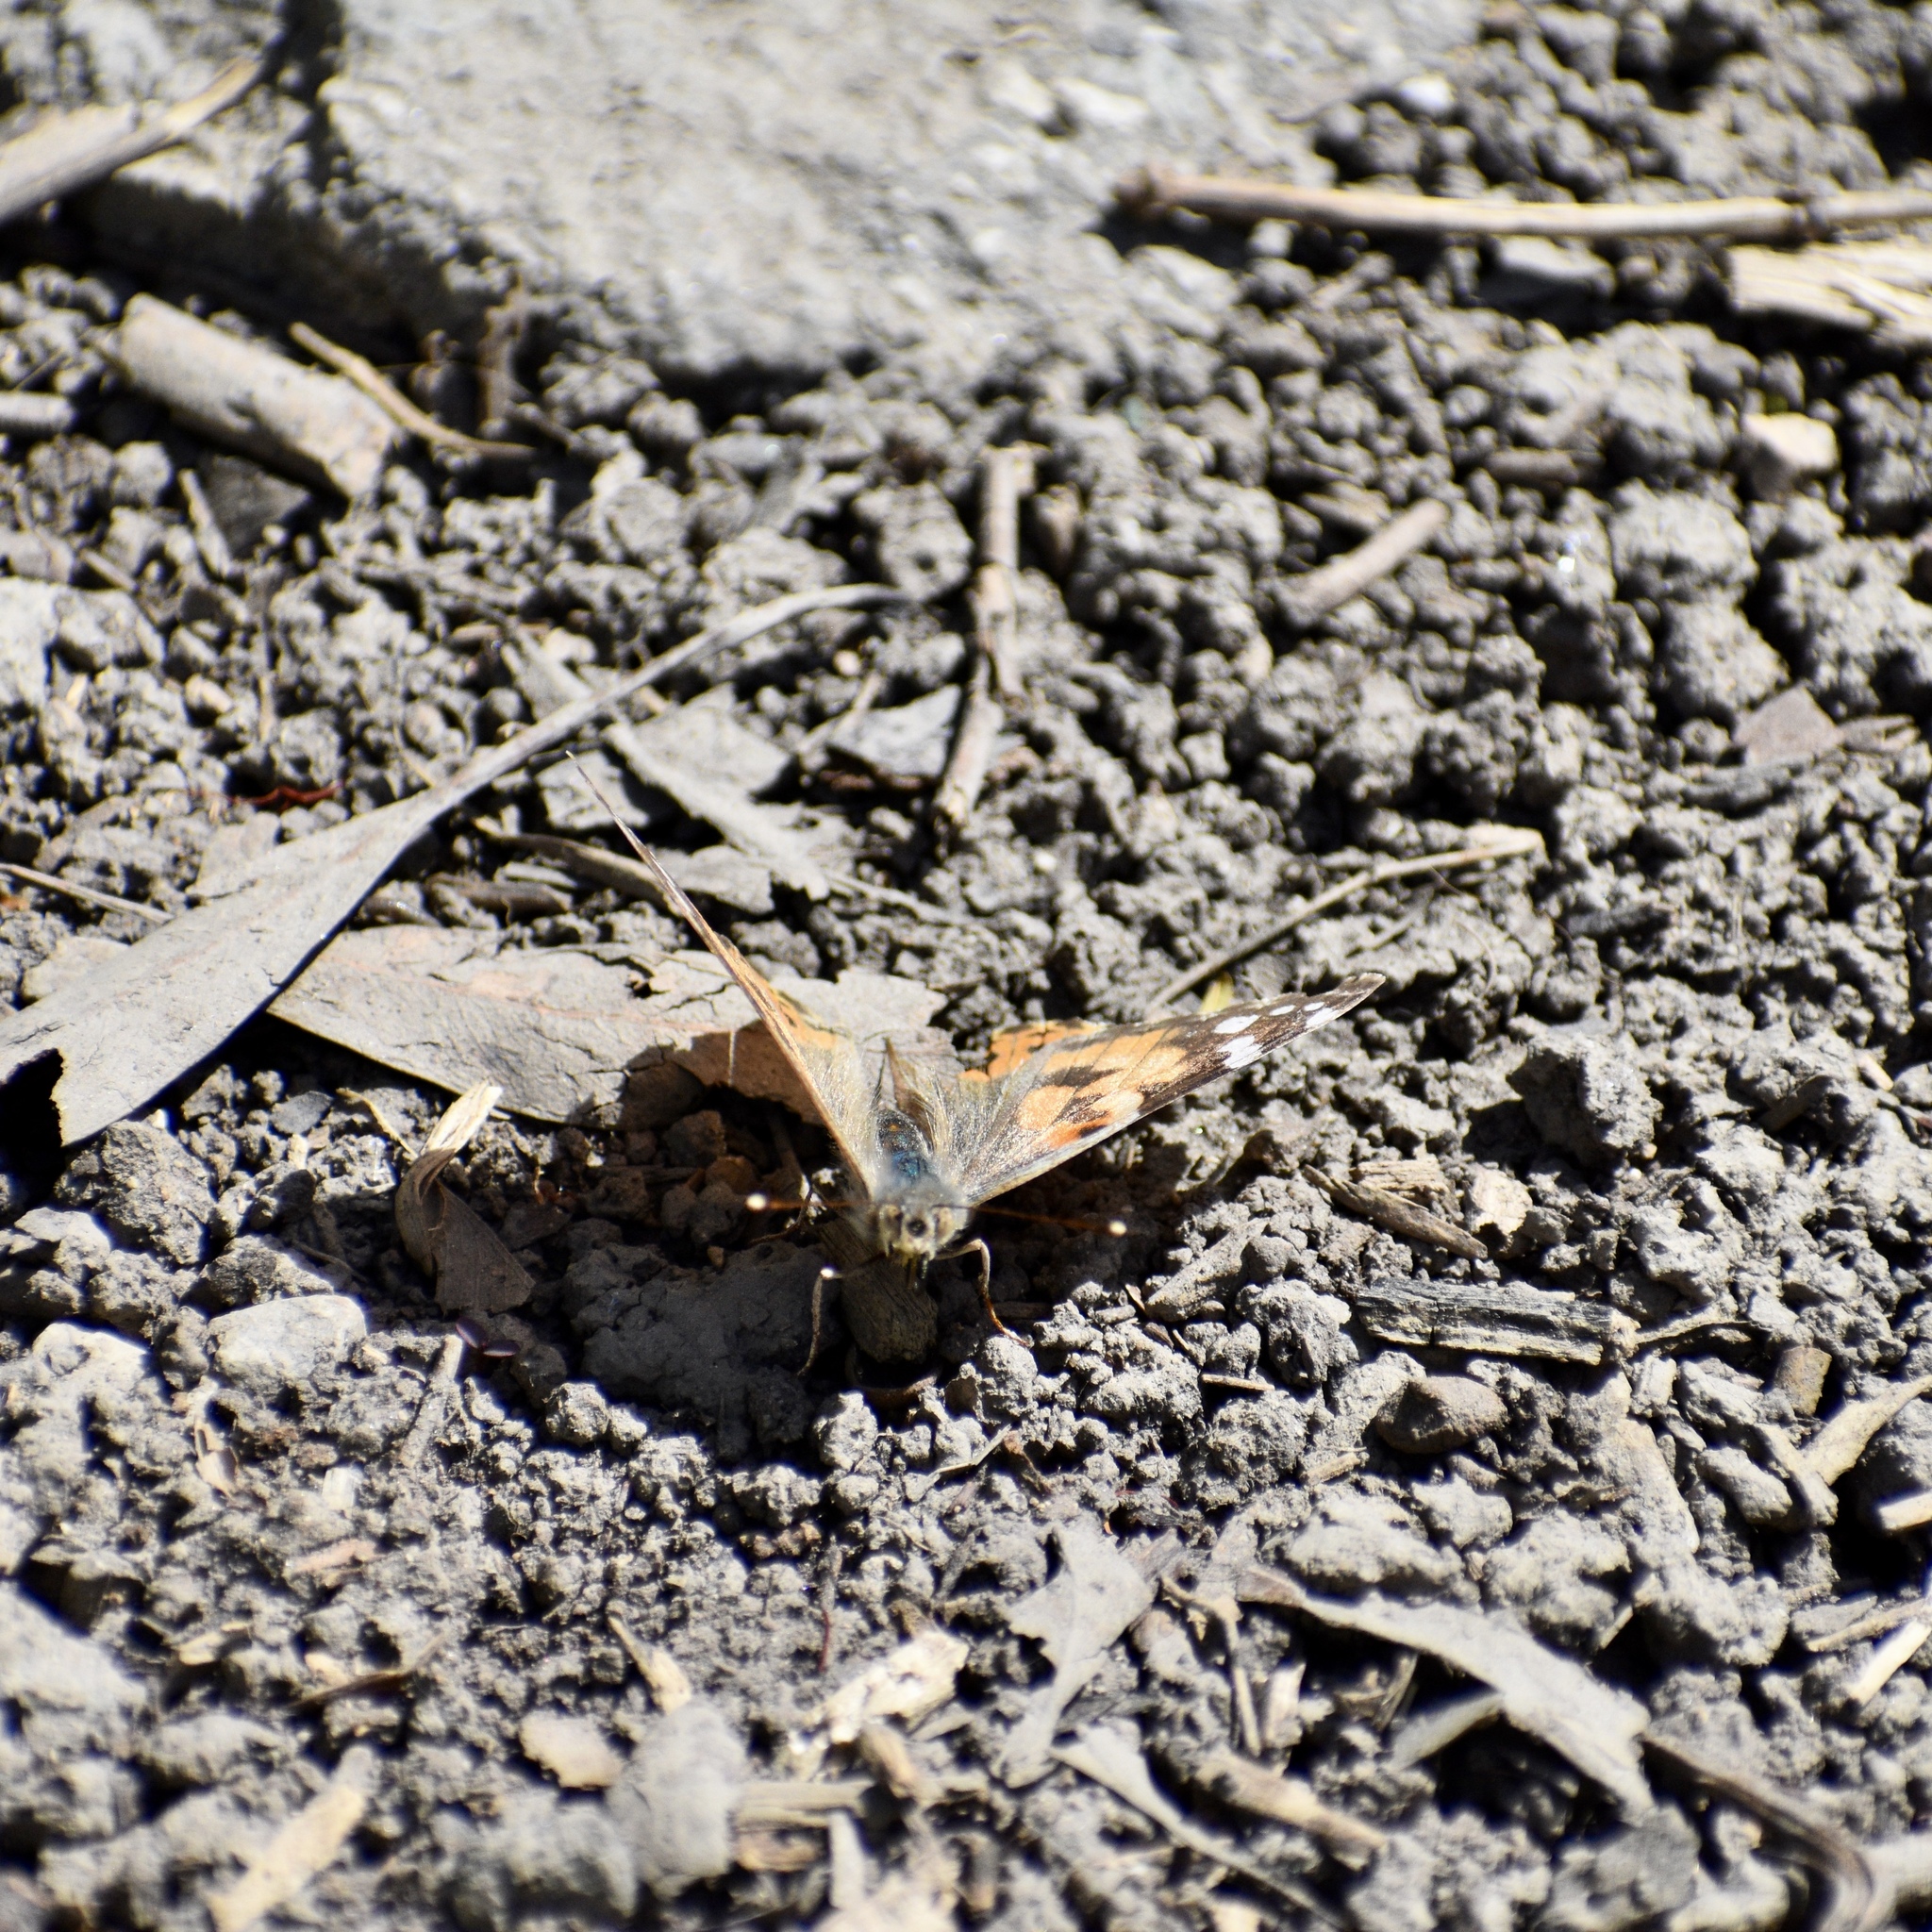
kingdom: Animalia
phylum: Arthropoda
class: Insecta
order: Lepidoptera
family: Nymphalidae
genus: Vanessa
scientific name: Vanessa cardui
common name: Painted lady
